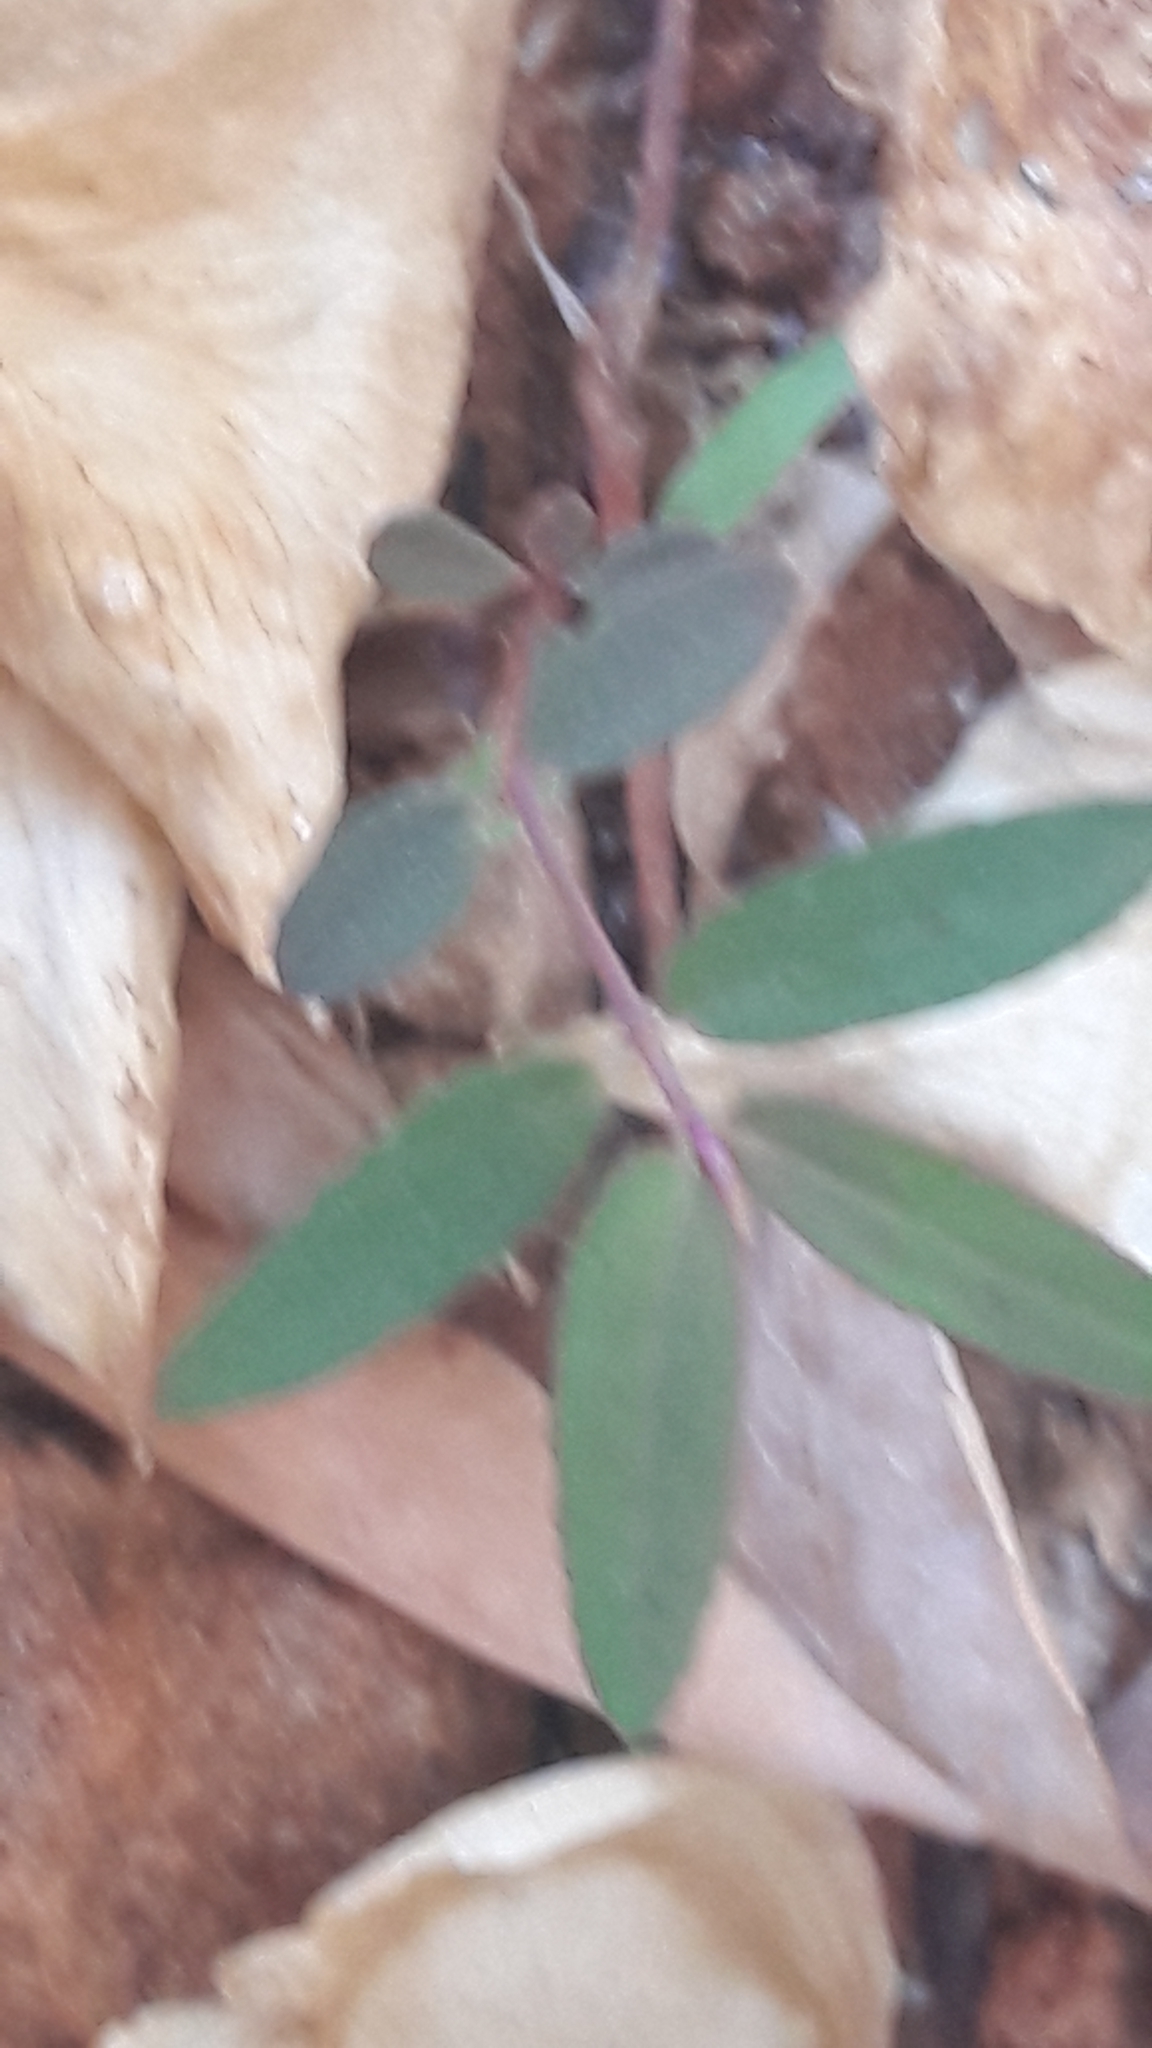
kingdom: Plantae
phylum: Tracheophyta
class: Magnoliopsida
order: Malpighiales
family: Euphorbiaceae
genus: Euphorbia
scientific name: Euphorbia hypericifolia
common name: Graceful sandmat
